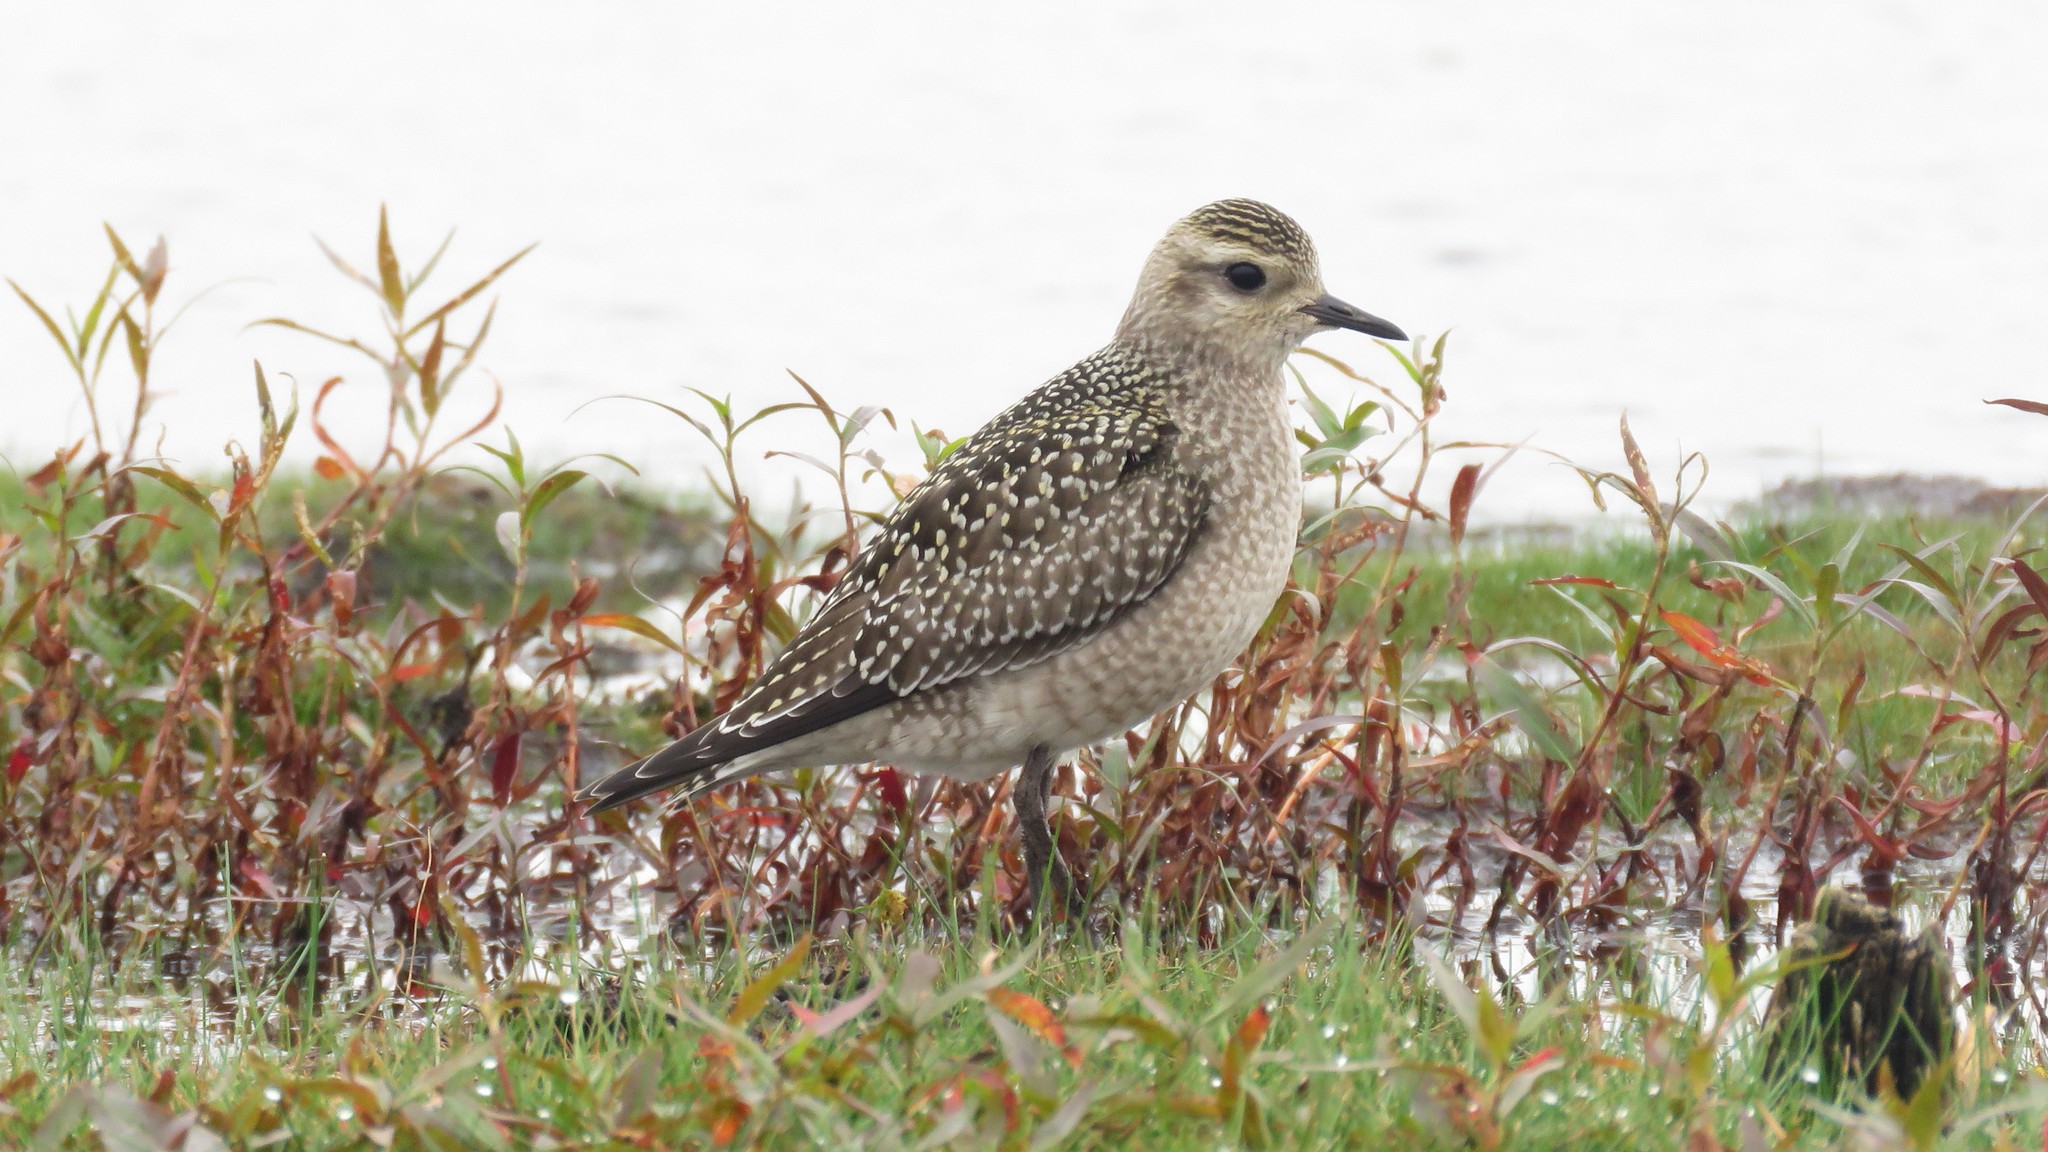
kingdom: Animalia
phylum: Chordata
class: Aves
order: Charadriiformes
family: Charadriidae
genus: Pluvialis
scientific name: Pluvialis dominica
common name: American golden plover
